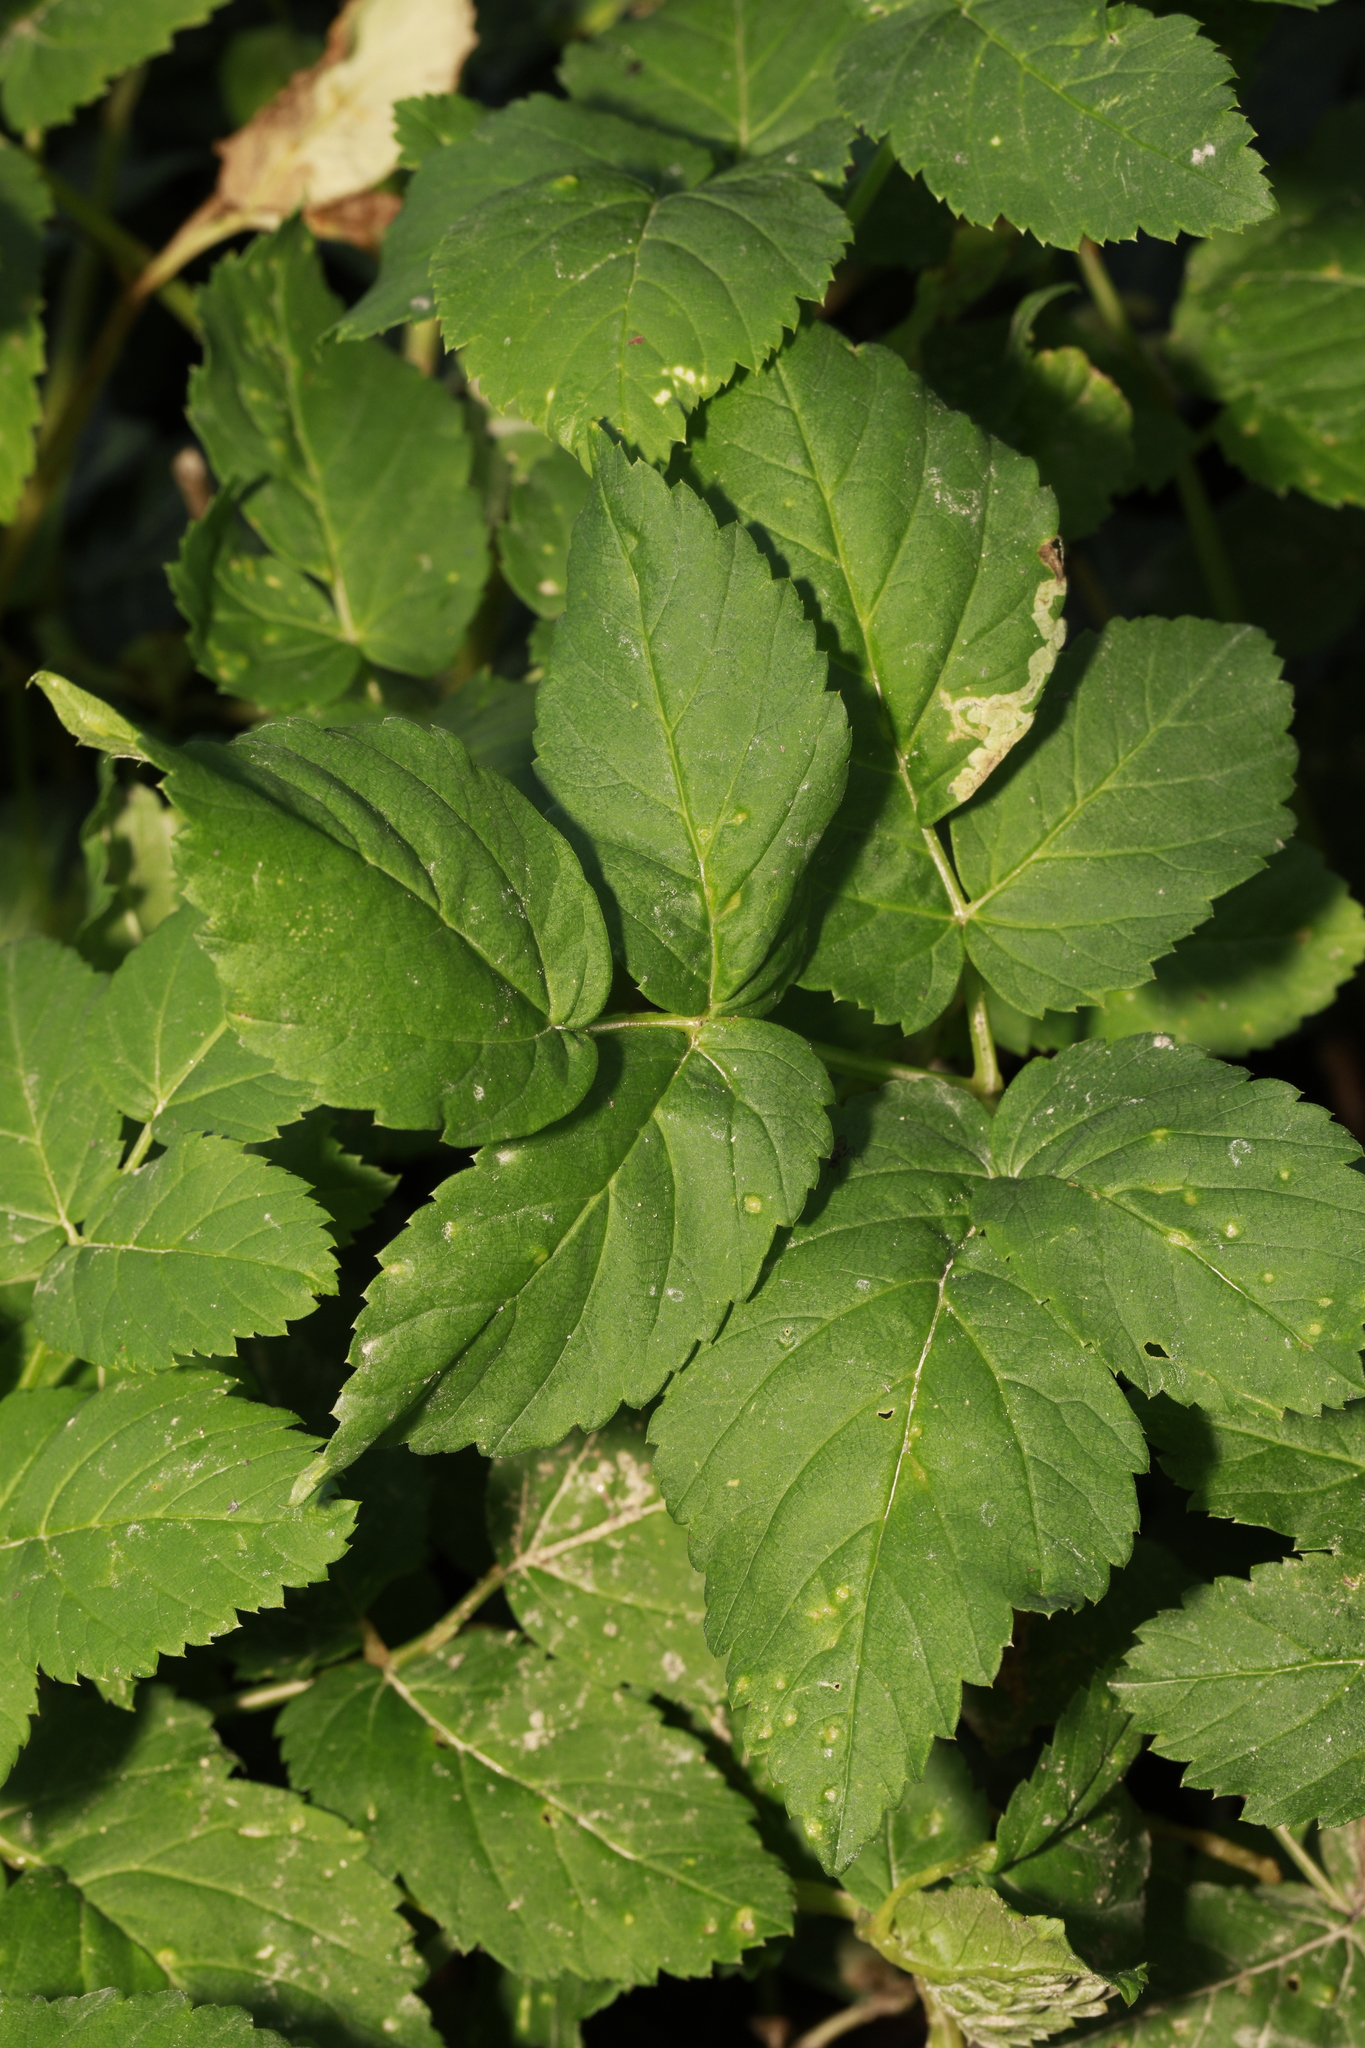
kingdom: Plantae
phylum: Tracheophyta
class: Magnoliopsida
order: Apiales
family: Apiaceae
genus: Aegopodium
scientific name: Aegopodium podagraria
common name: Ground-elder
